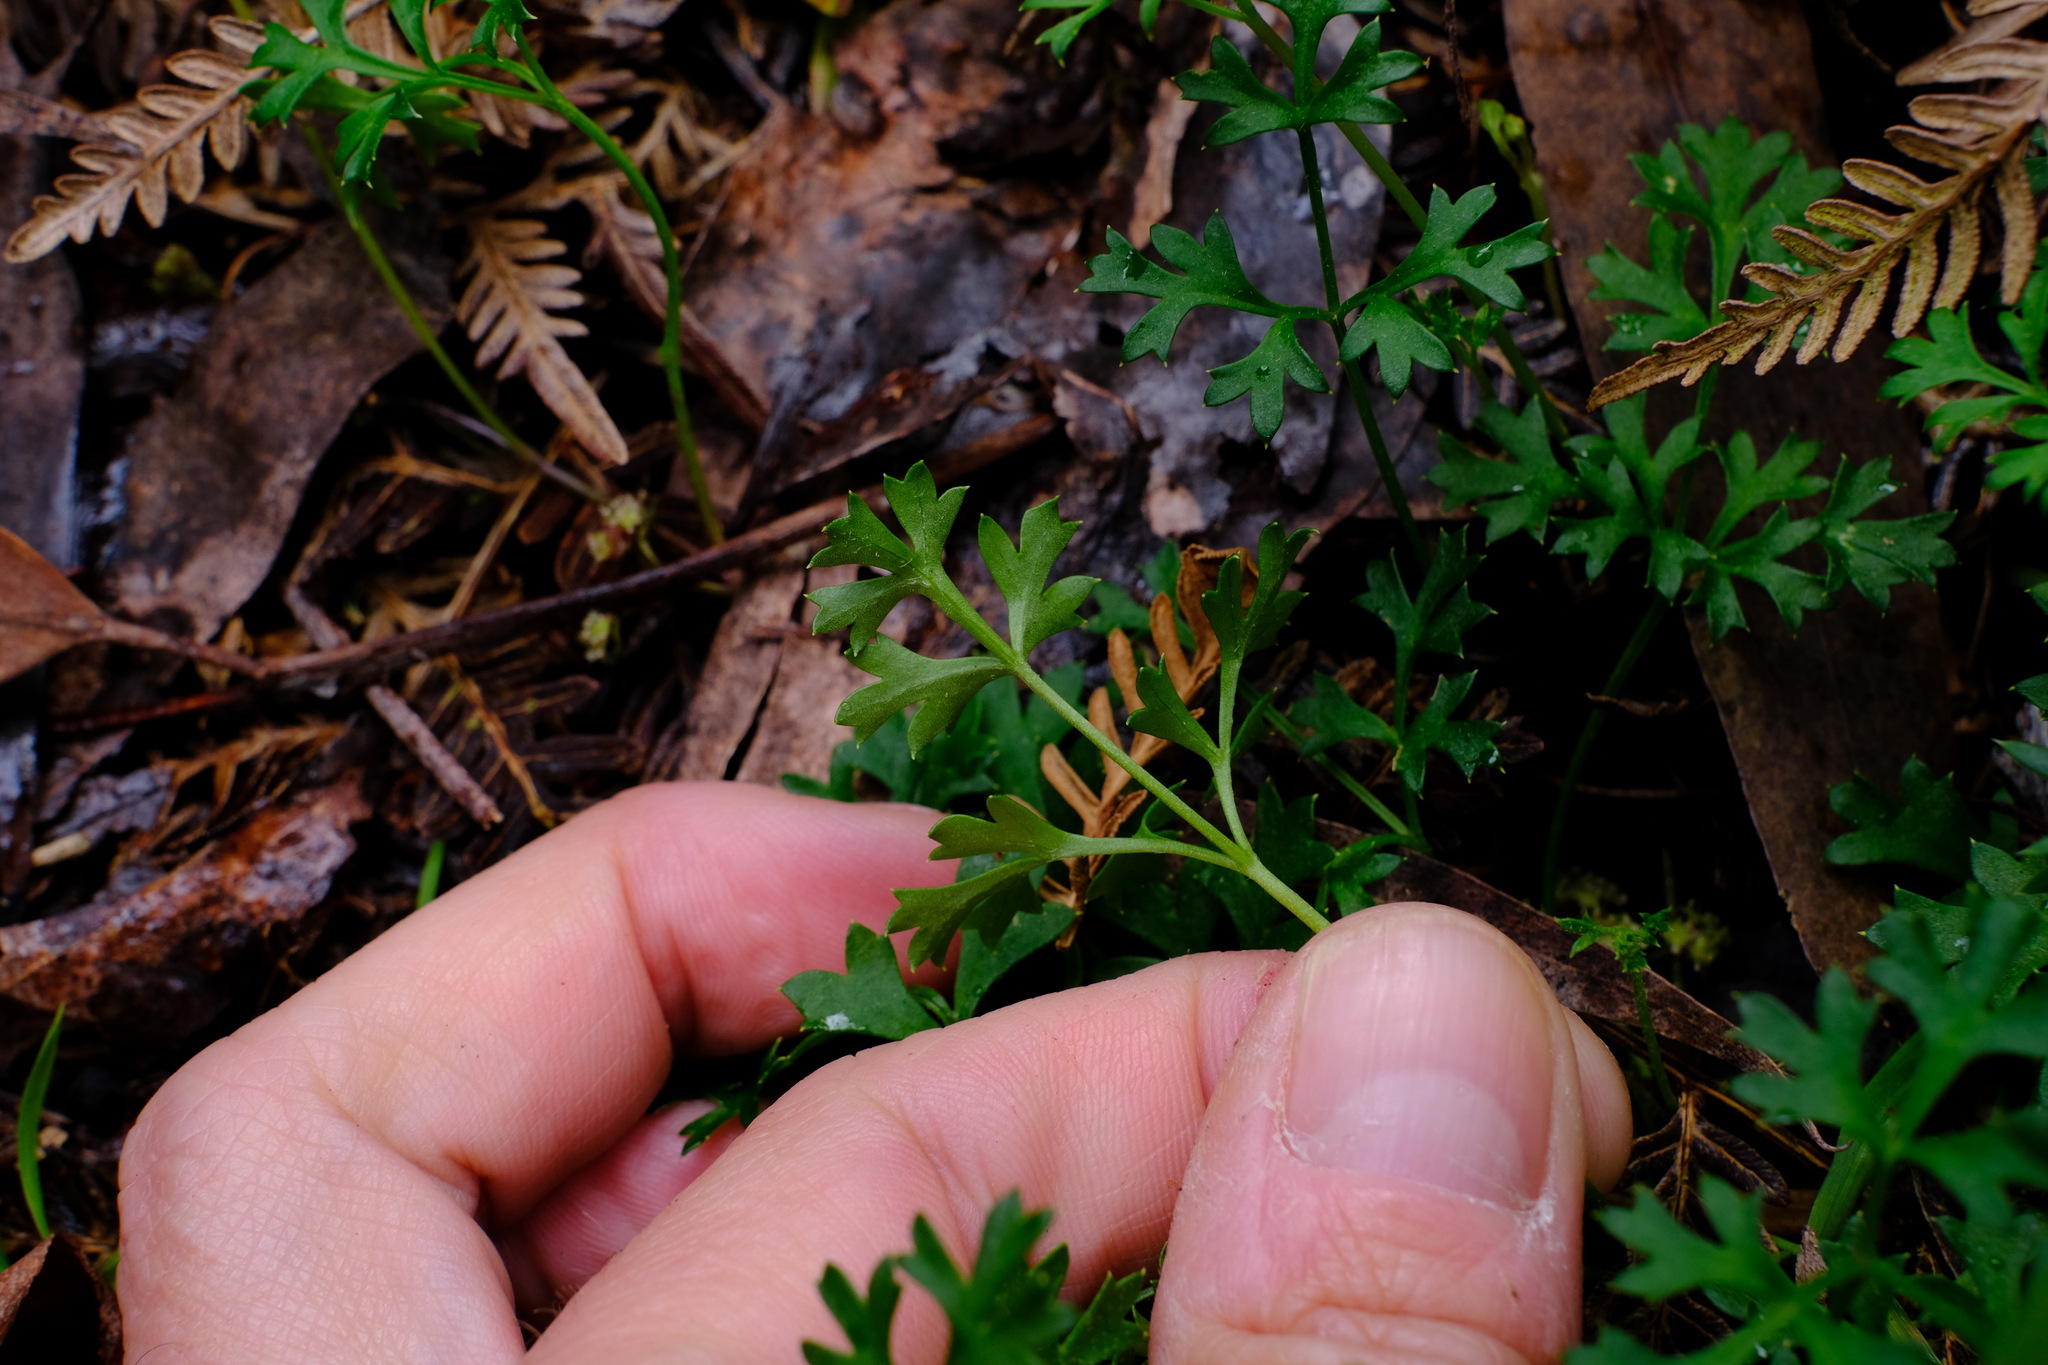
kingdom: Plantae
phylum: Tracheophyta
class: Magnoliopsida
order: Apiales
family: Apiaceae
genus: Xanthosia
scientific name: Xanthosia dissecta
